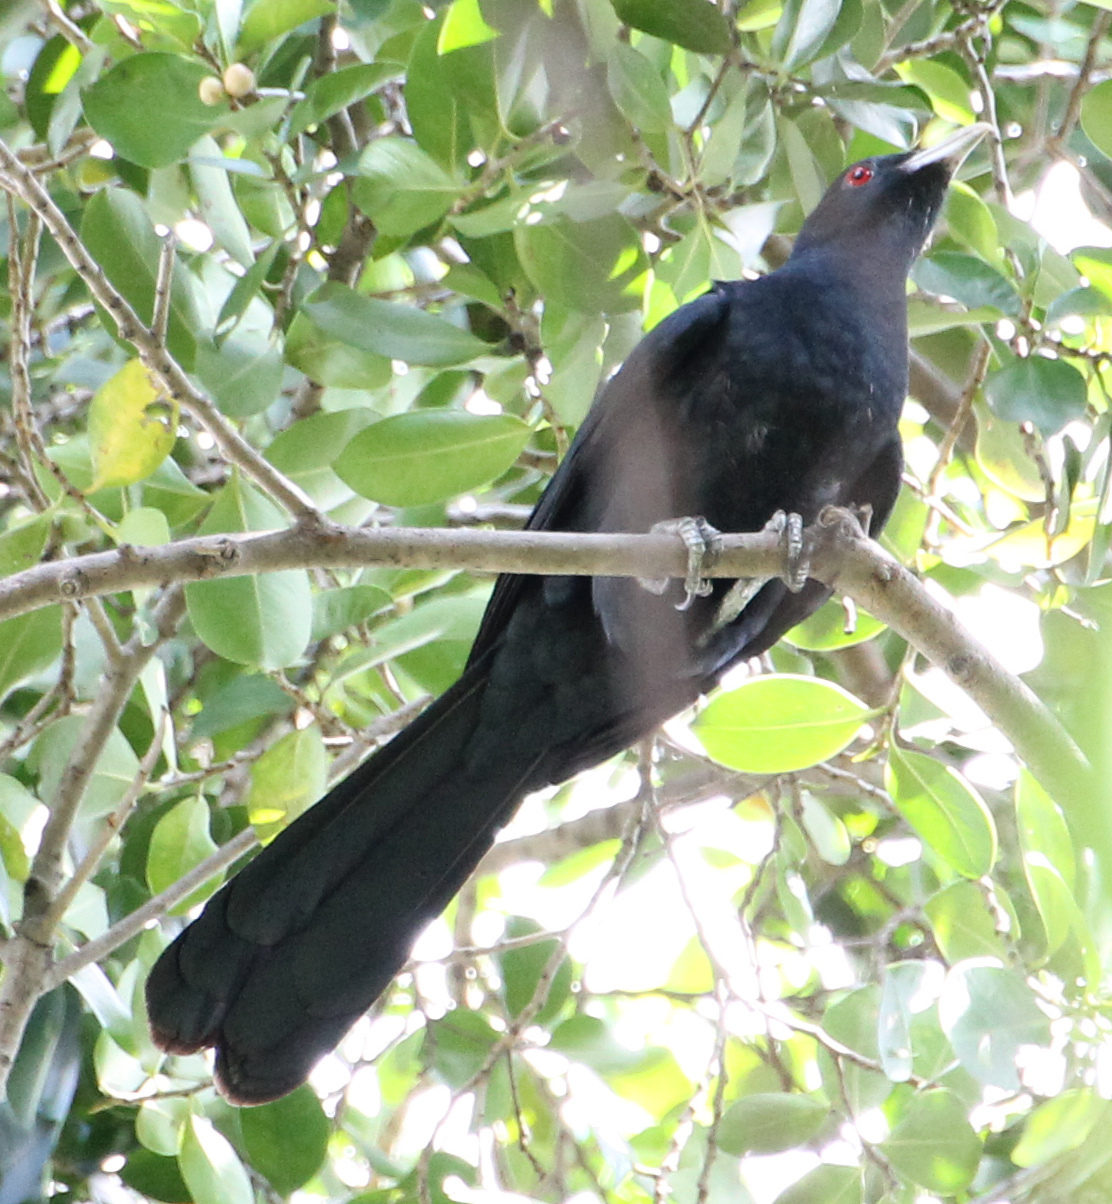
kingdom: Animalia
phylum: Chordata
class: Aves
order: Cuculiformes
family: Cuculidae
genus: Eudynamys
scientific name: Eudynamys scolopaceus
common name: Asian koel
